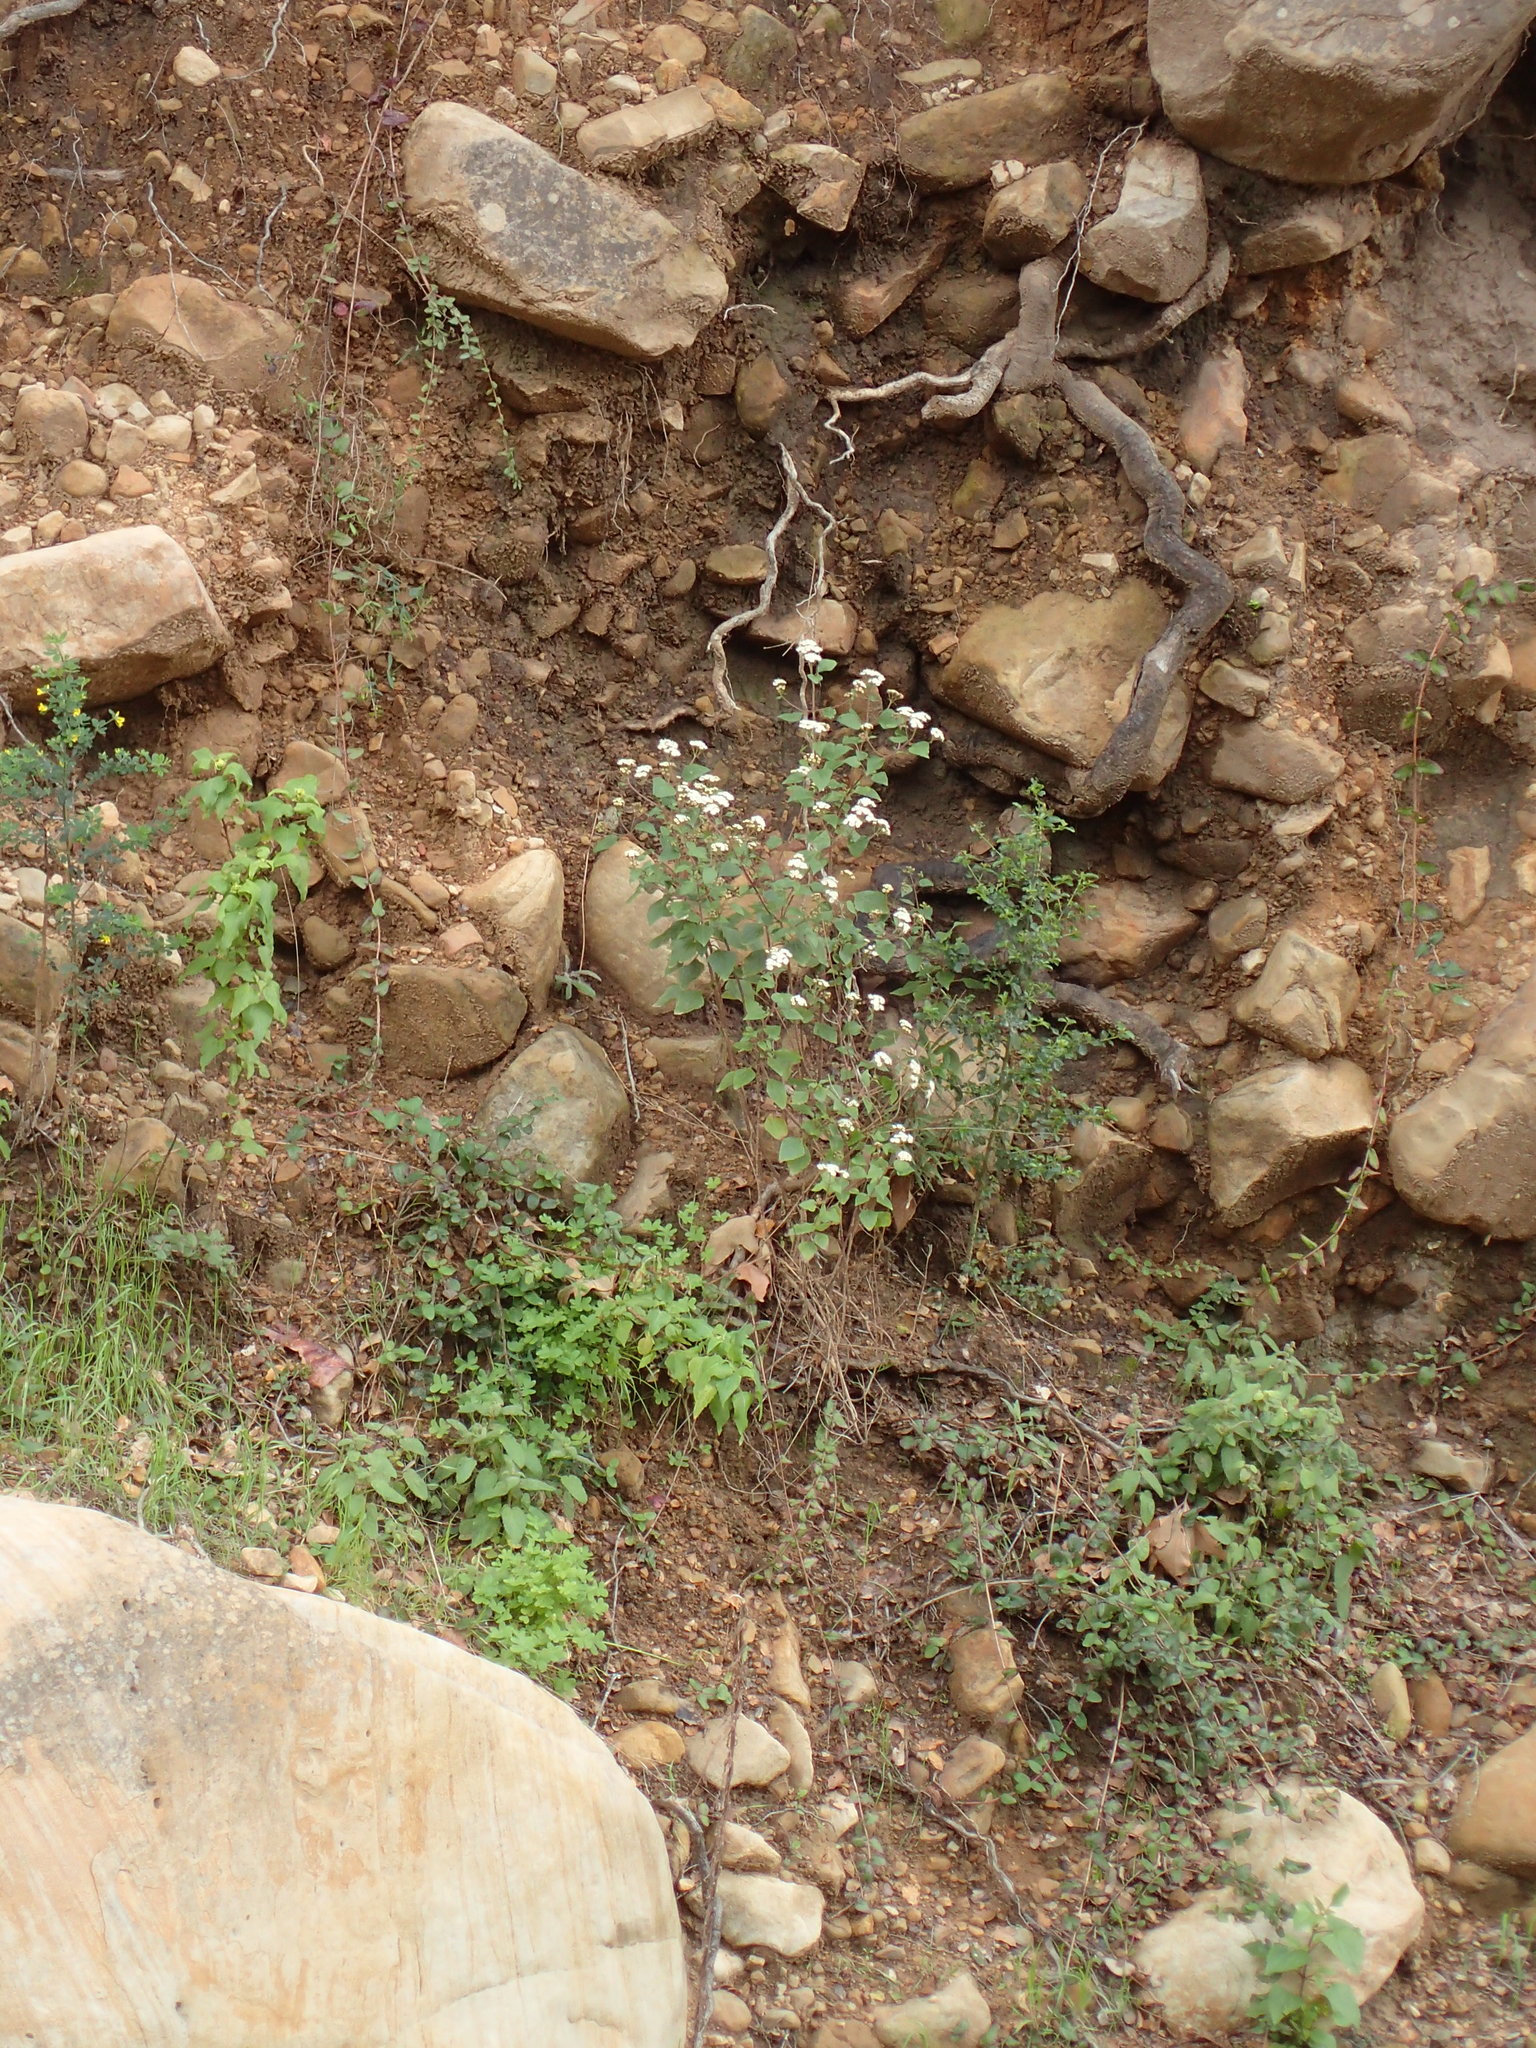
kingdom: Plantae
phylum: Tracheophyta
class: Magnoliopsida
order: Asterales
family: Asteraceae
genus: Ageratina
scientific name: Ageratina adenophora
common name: Sticky snakeroot
